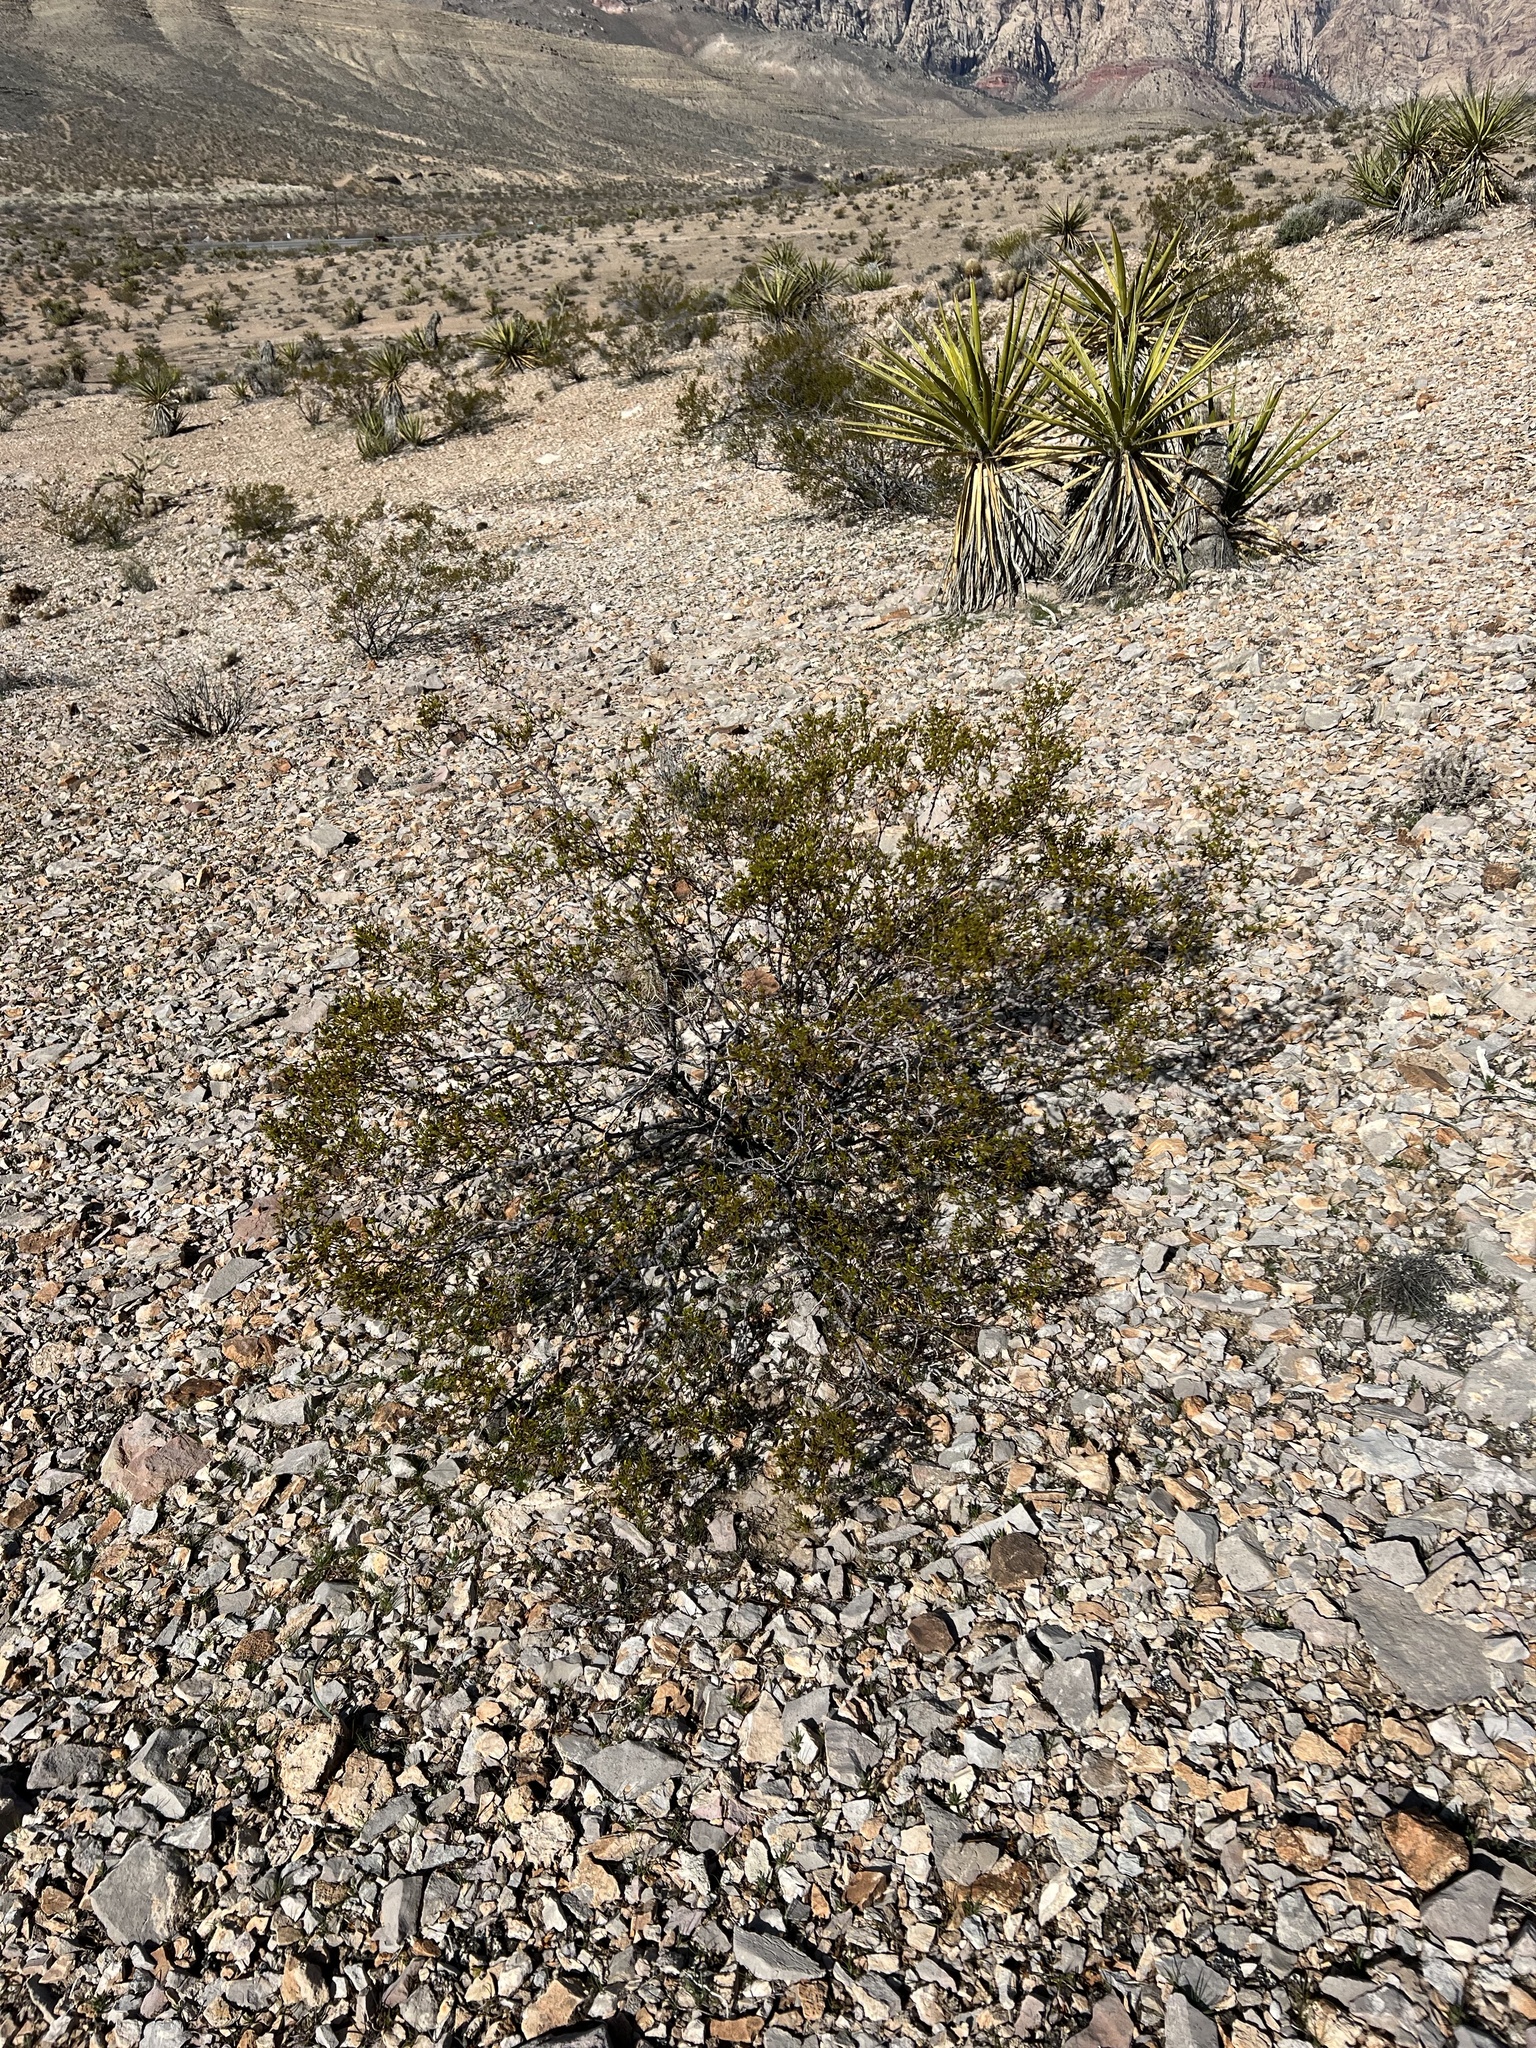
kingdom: Plantae
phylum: Tracheophyta
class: Magnoliopsida
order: Zygophyllales
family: Zygophyllaceae
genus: Larrea
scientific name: Larrea tridentata
